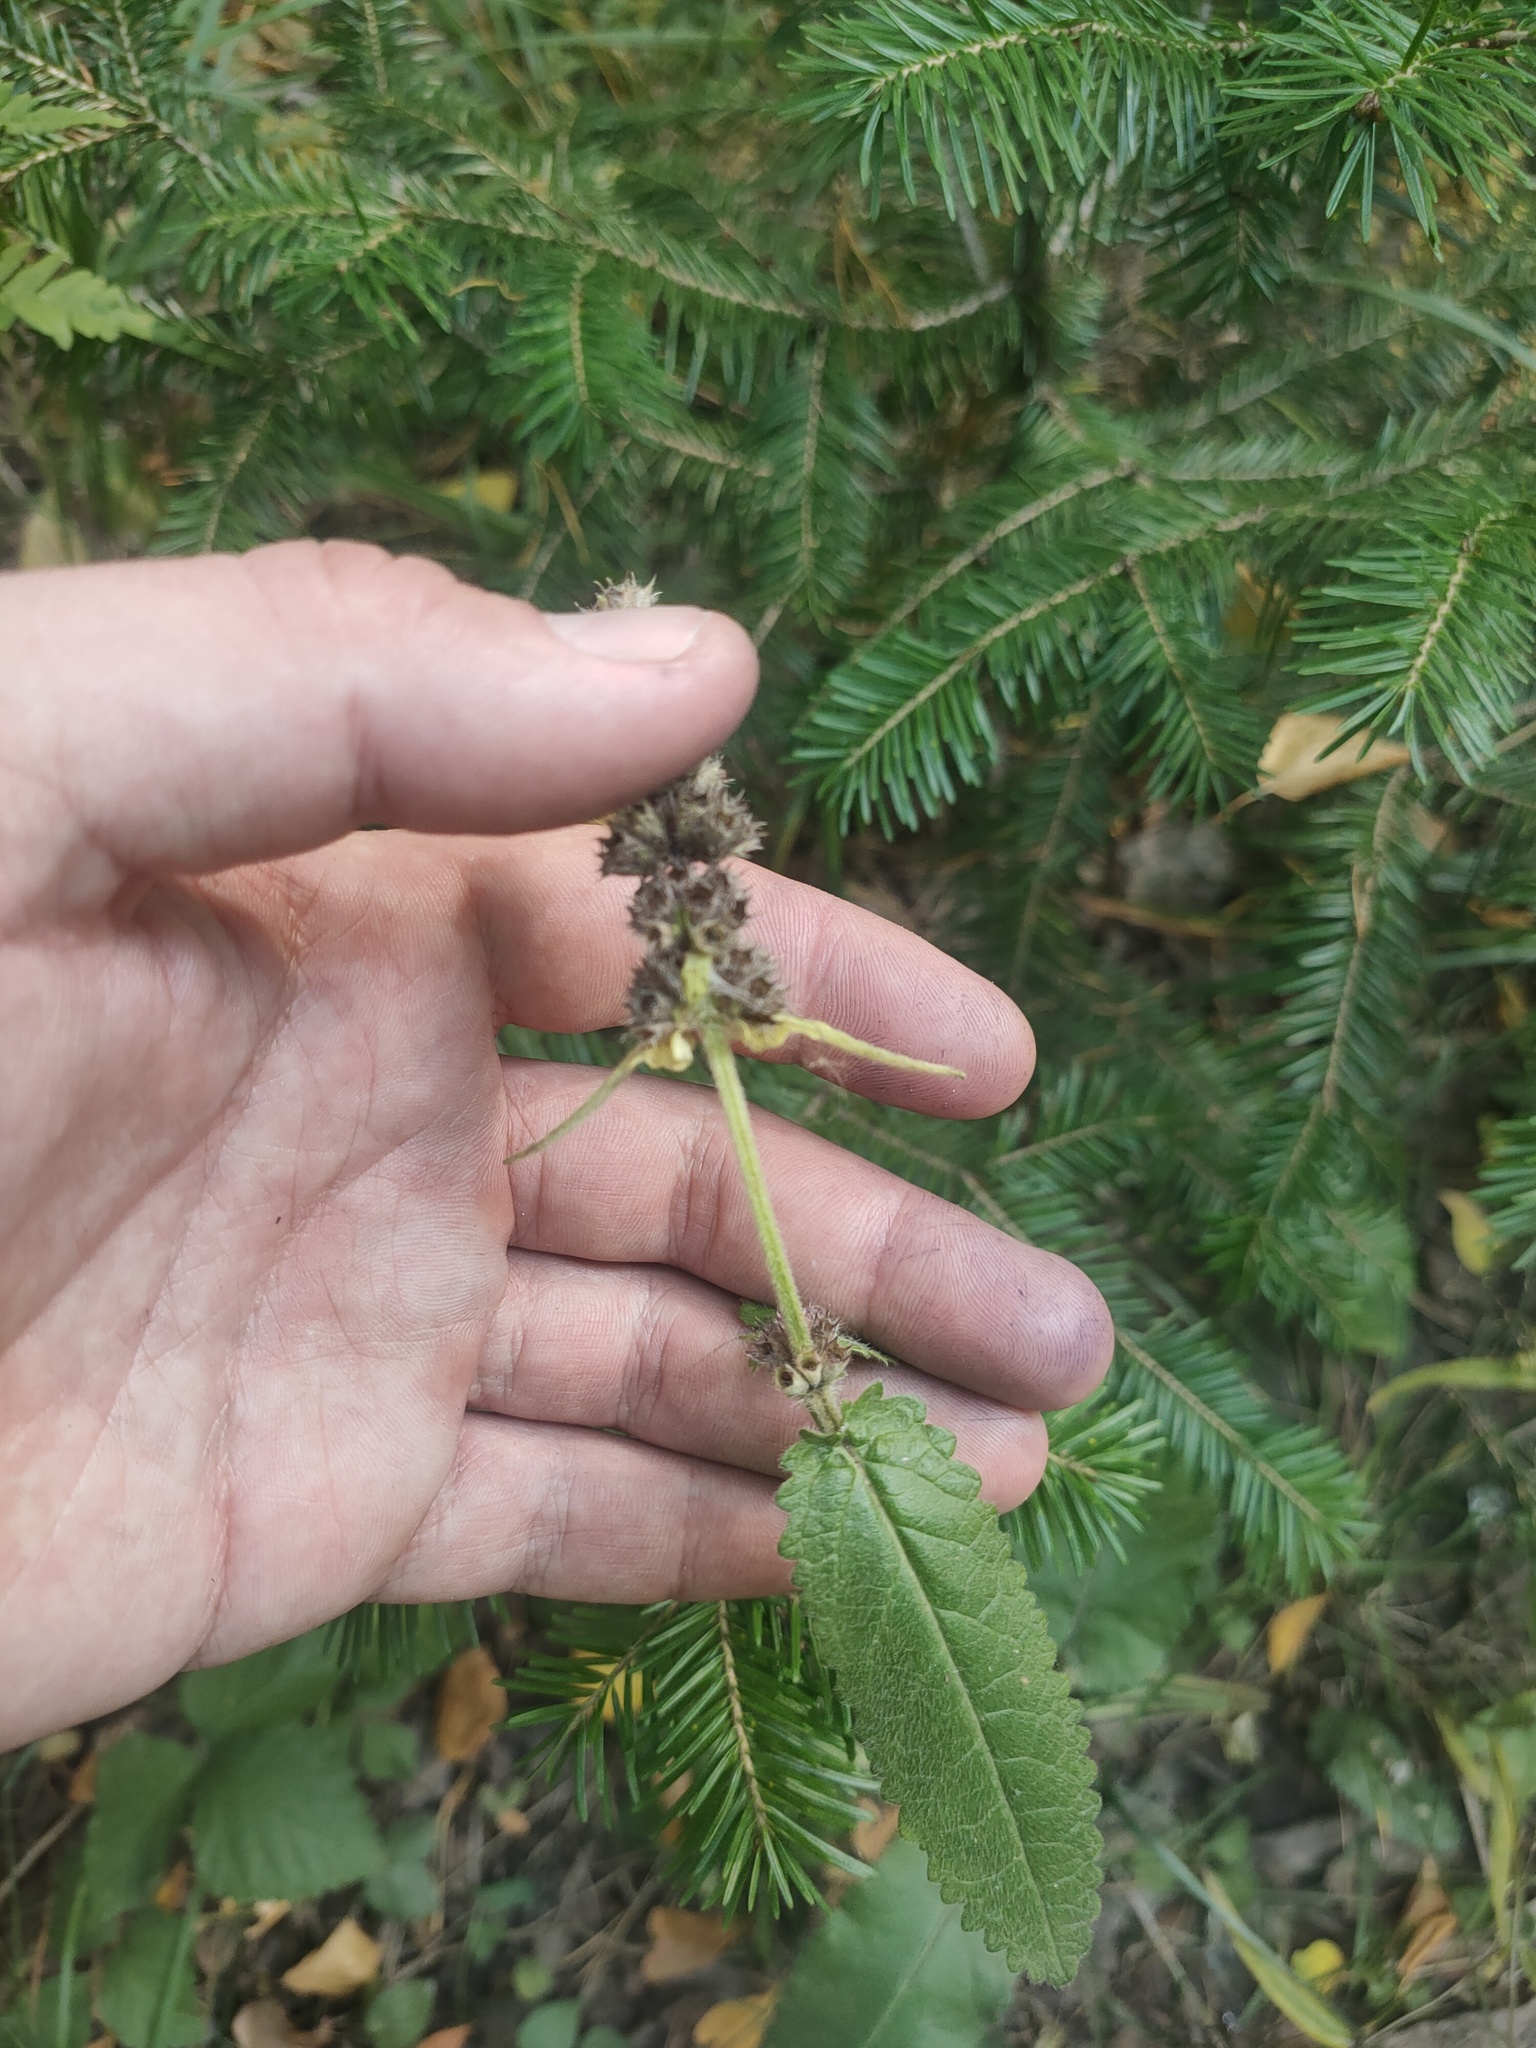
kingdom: Plantae
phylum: Tracheophyta
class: Magnoliopsida
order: Lamiales
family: Lamiaceae
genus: Betonica
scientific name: Betonica officinalis
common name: Bishop's-wort
